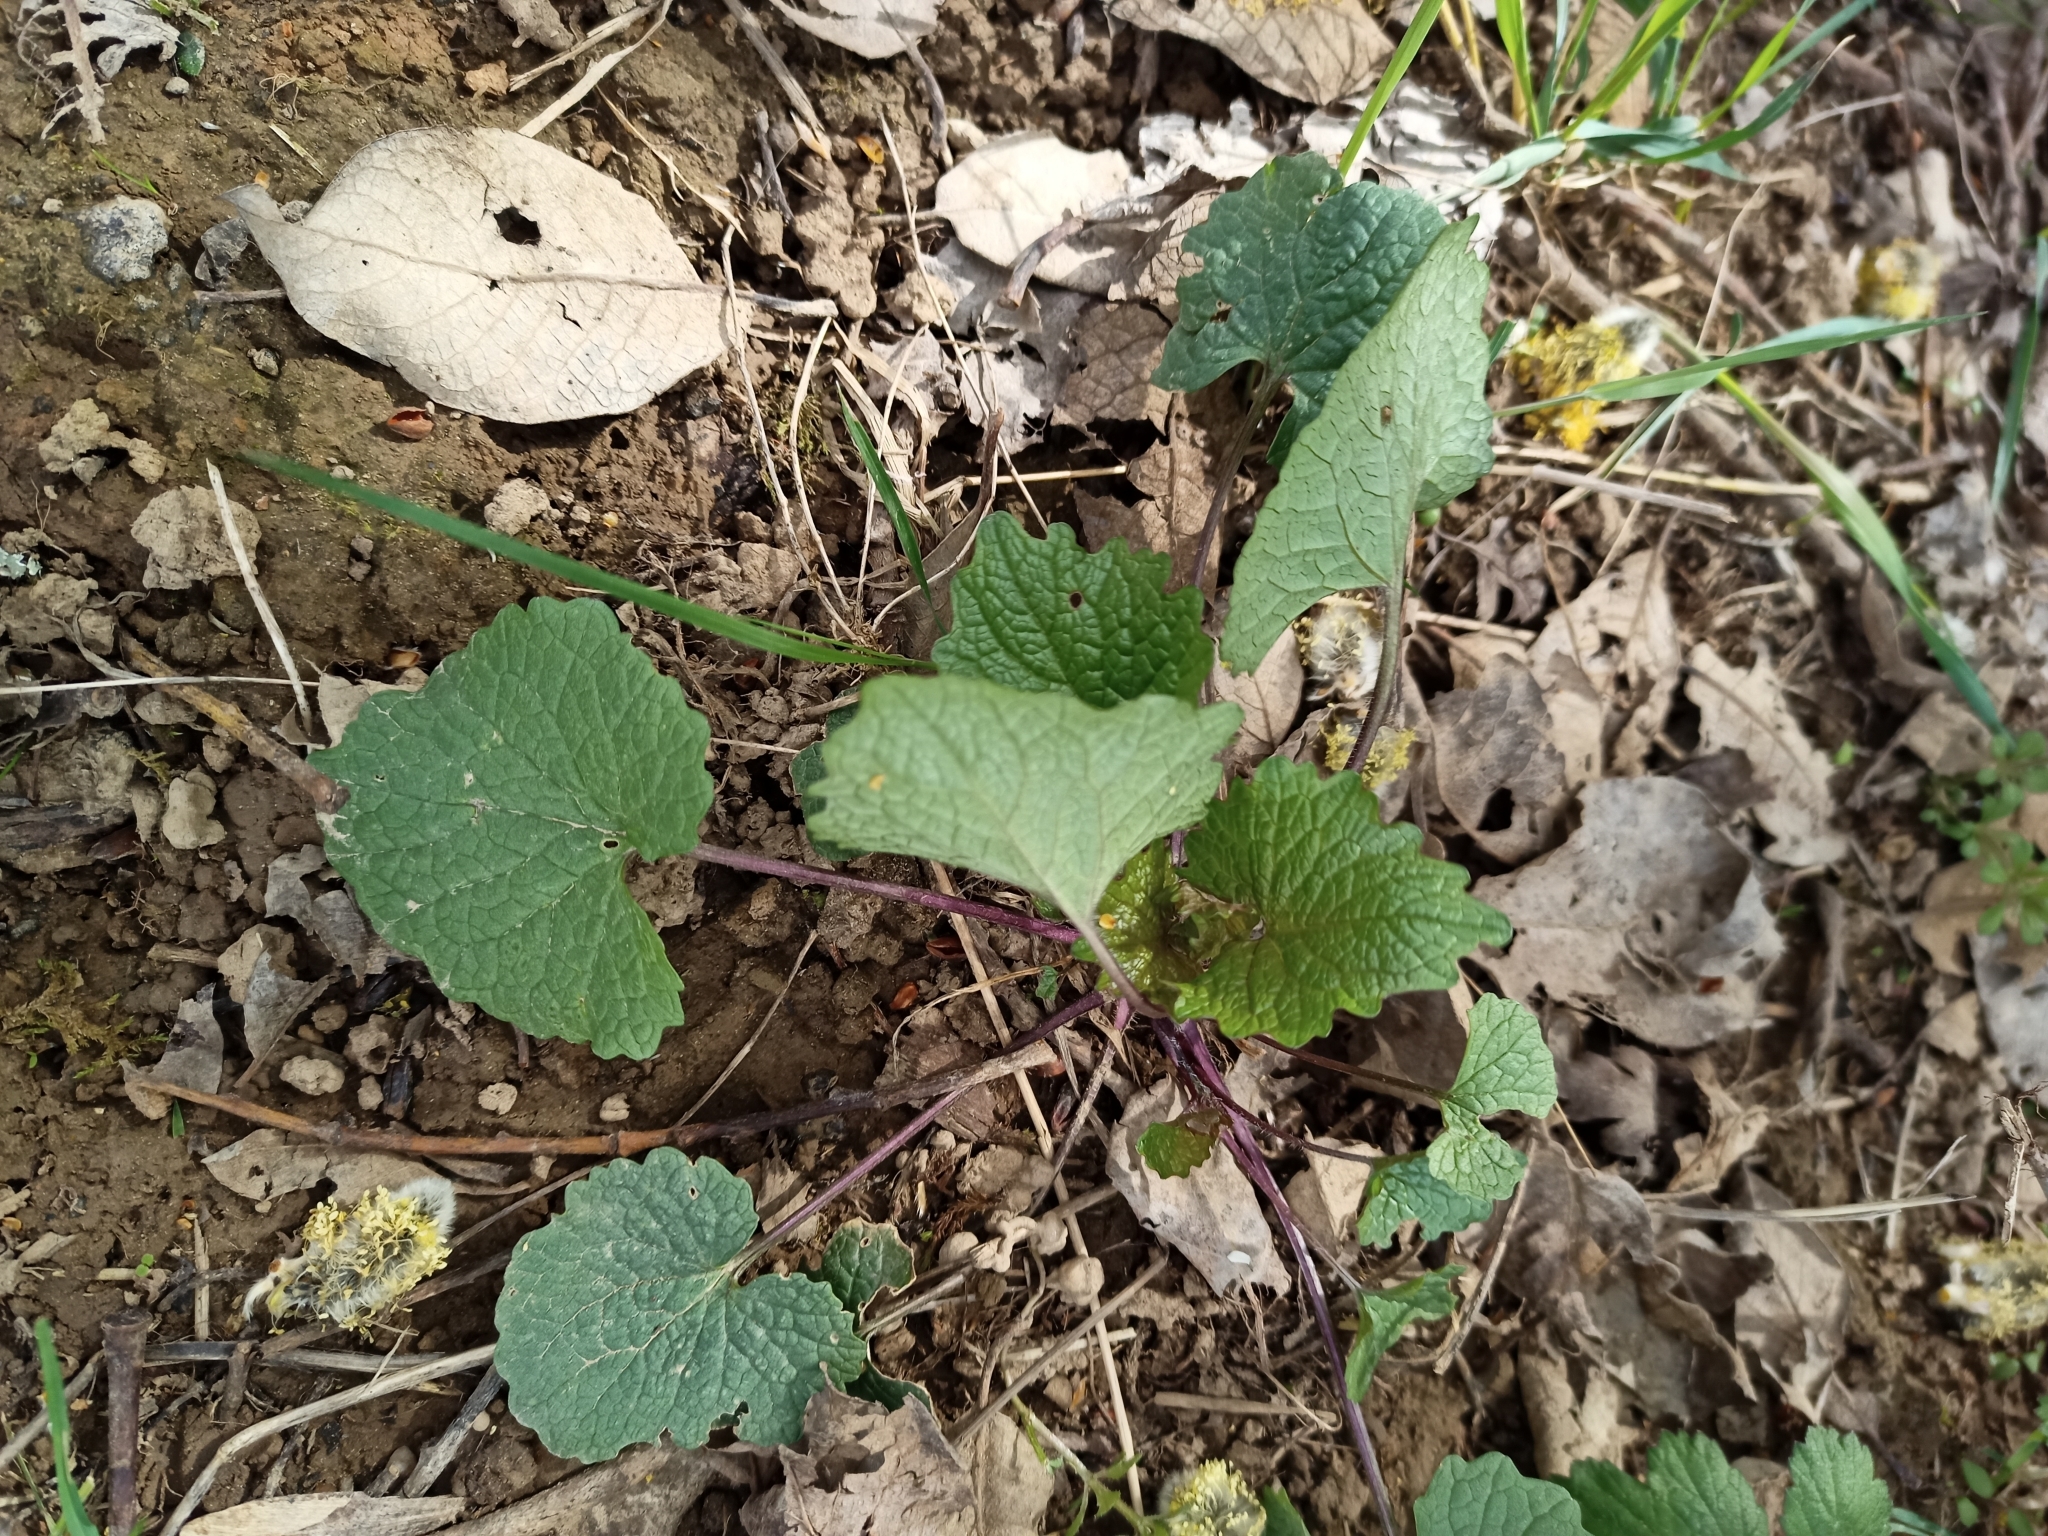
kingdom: Plantae
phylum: Tracheophyta
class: Magnoliopsida
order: Brassicales
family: Brassicaceae
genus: Alliaria
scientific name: Alliaria petiolata
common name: Garlic mustard
